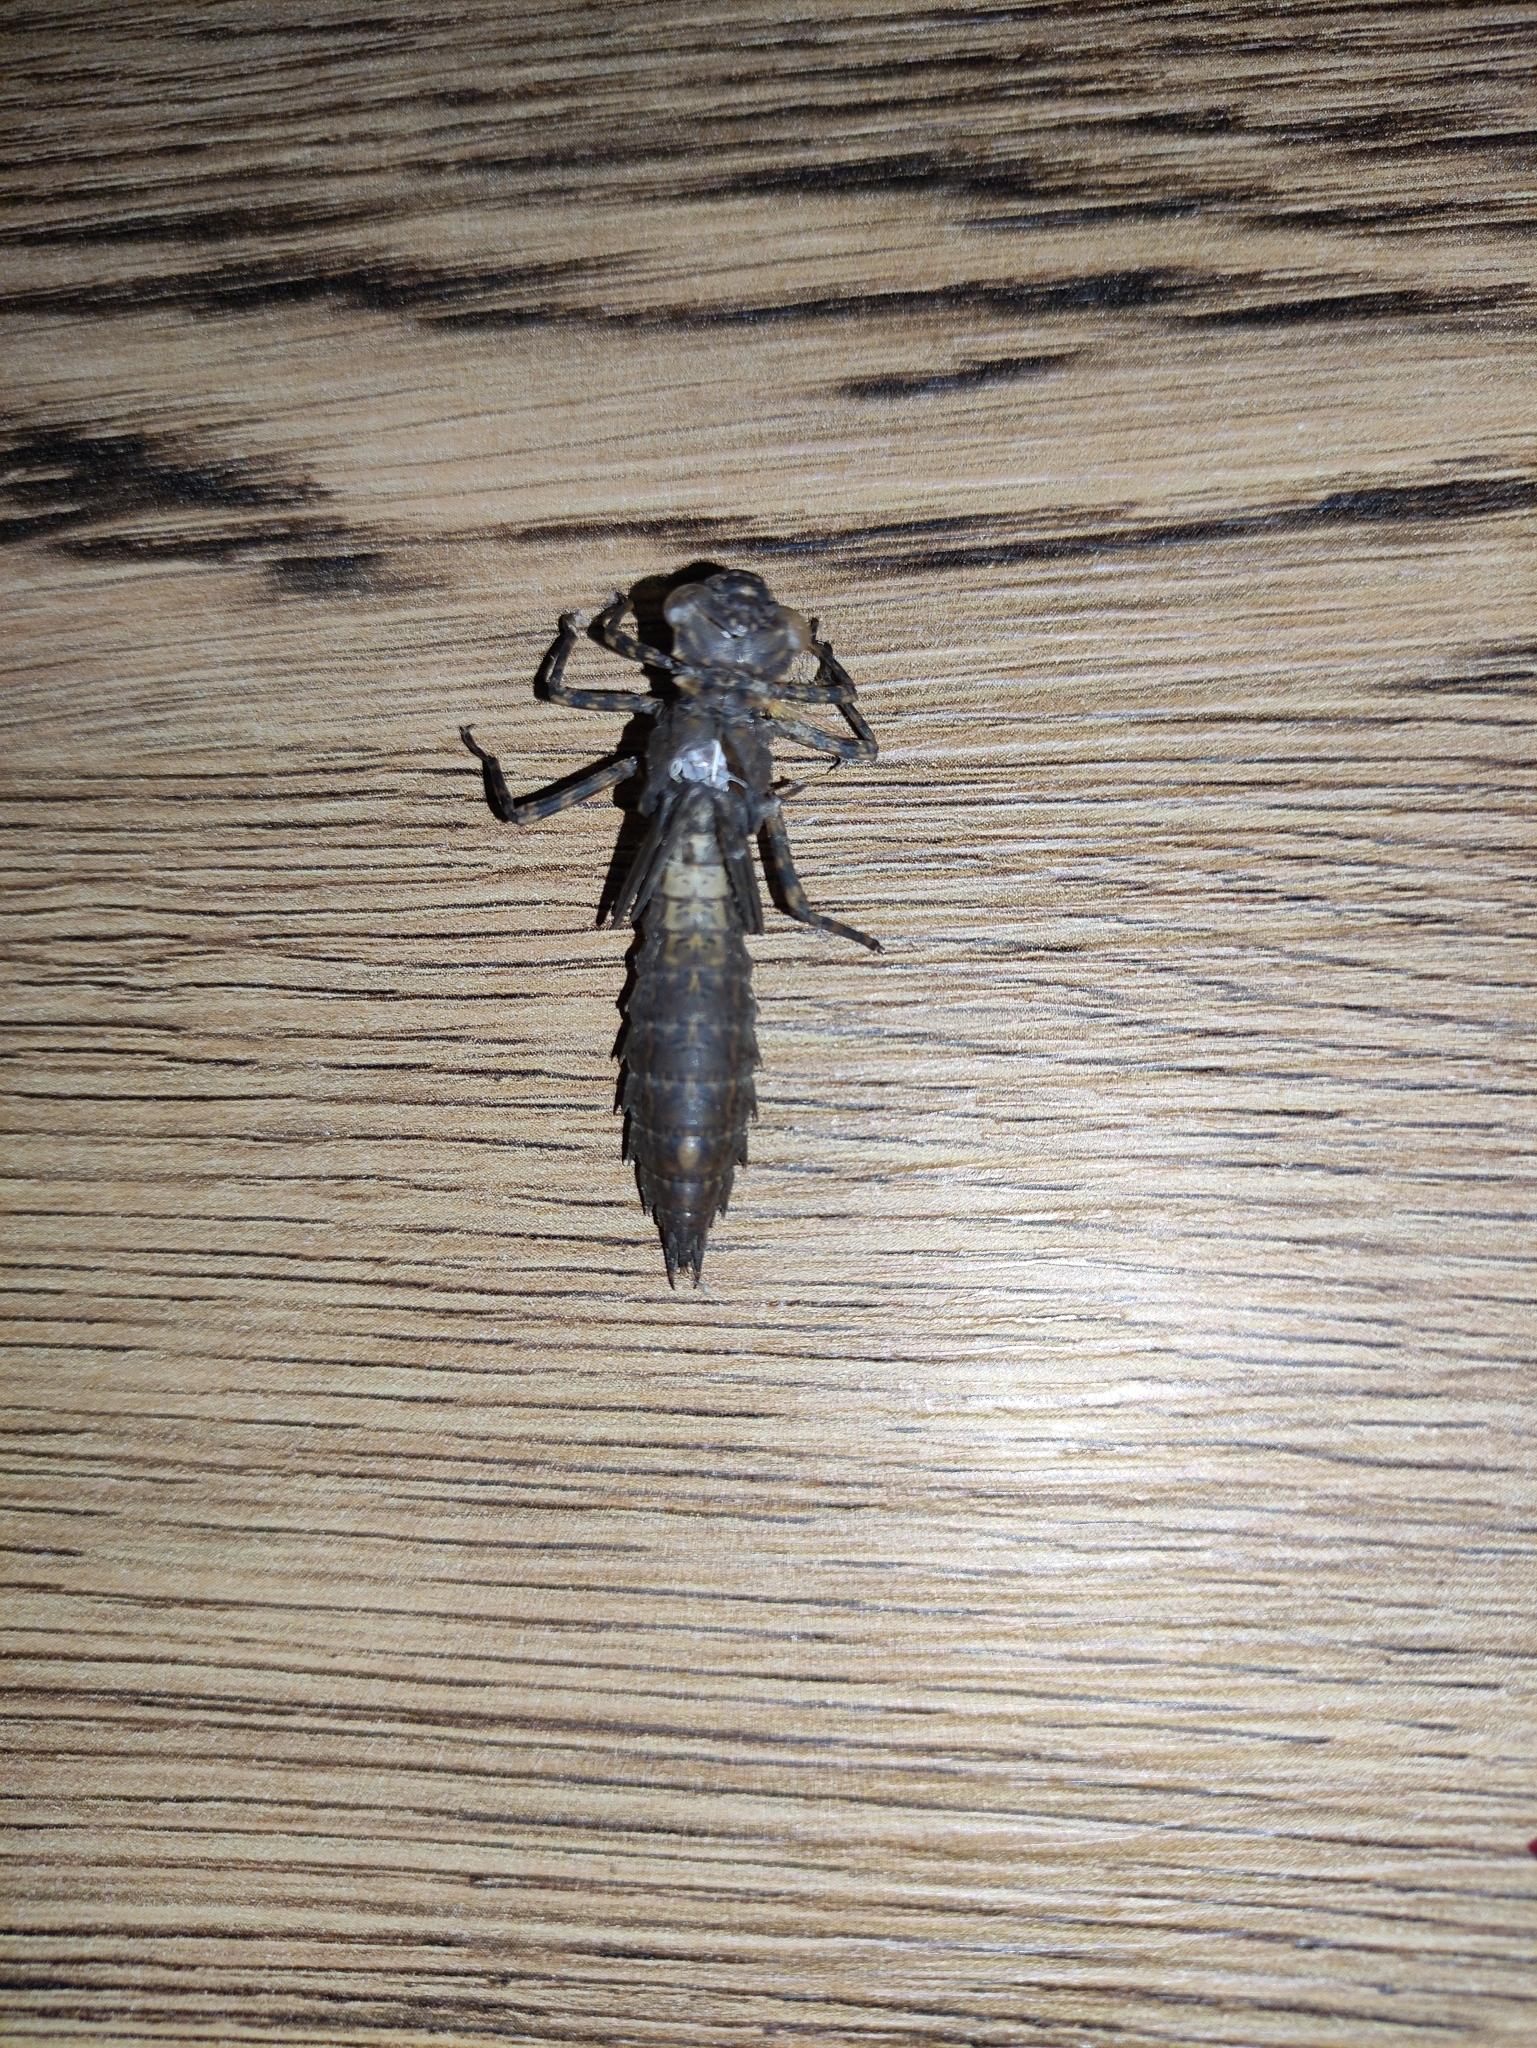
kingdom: Animalia
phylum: Arthropoda
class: Insecta
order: Odonata
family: Aeshnidae
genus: Boyeria
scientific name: Boyeria irene
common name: Western spectre
